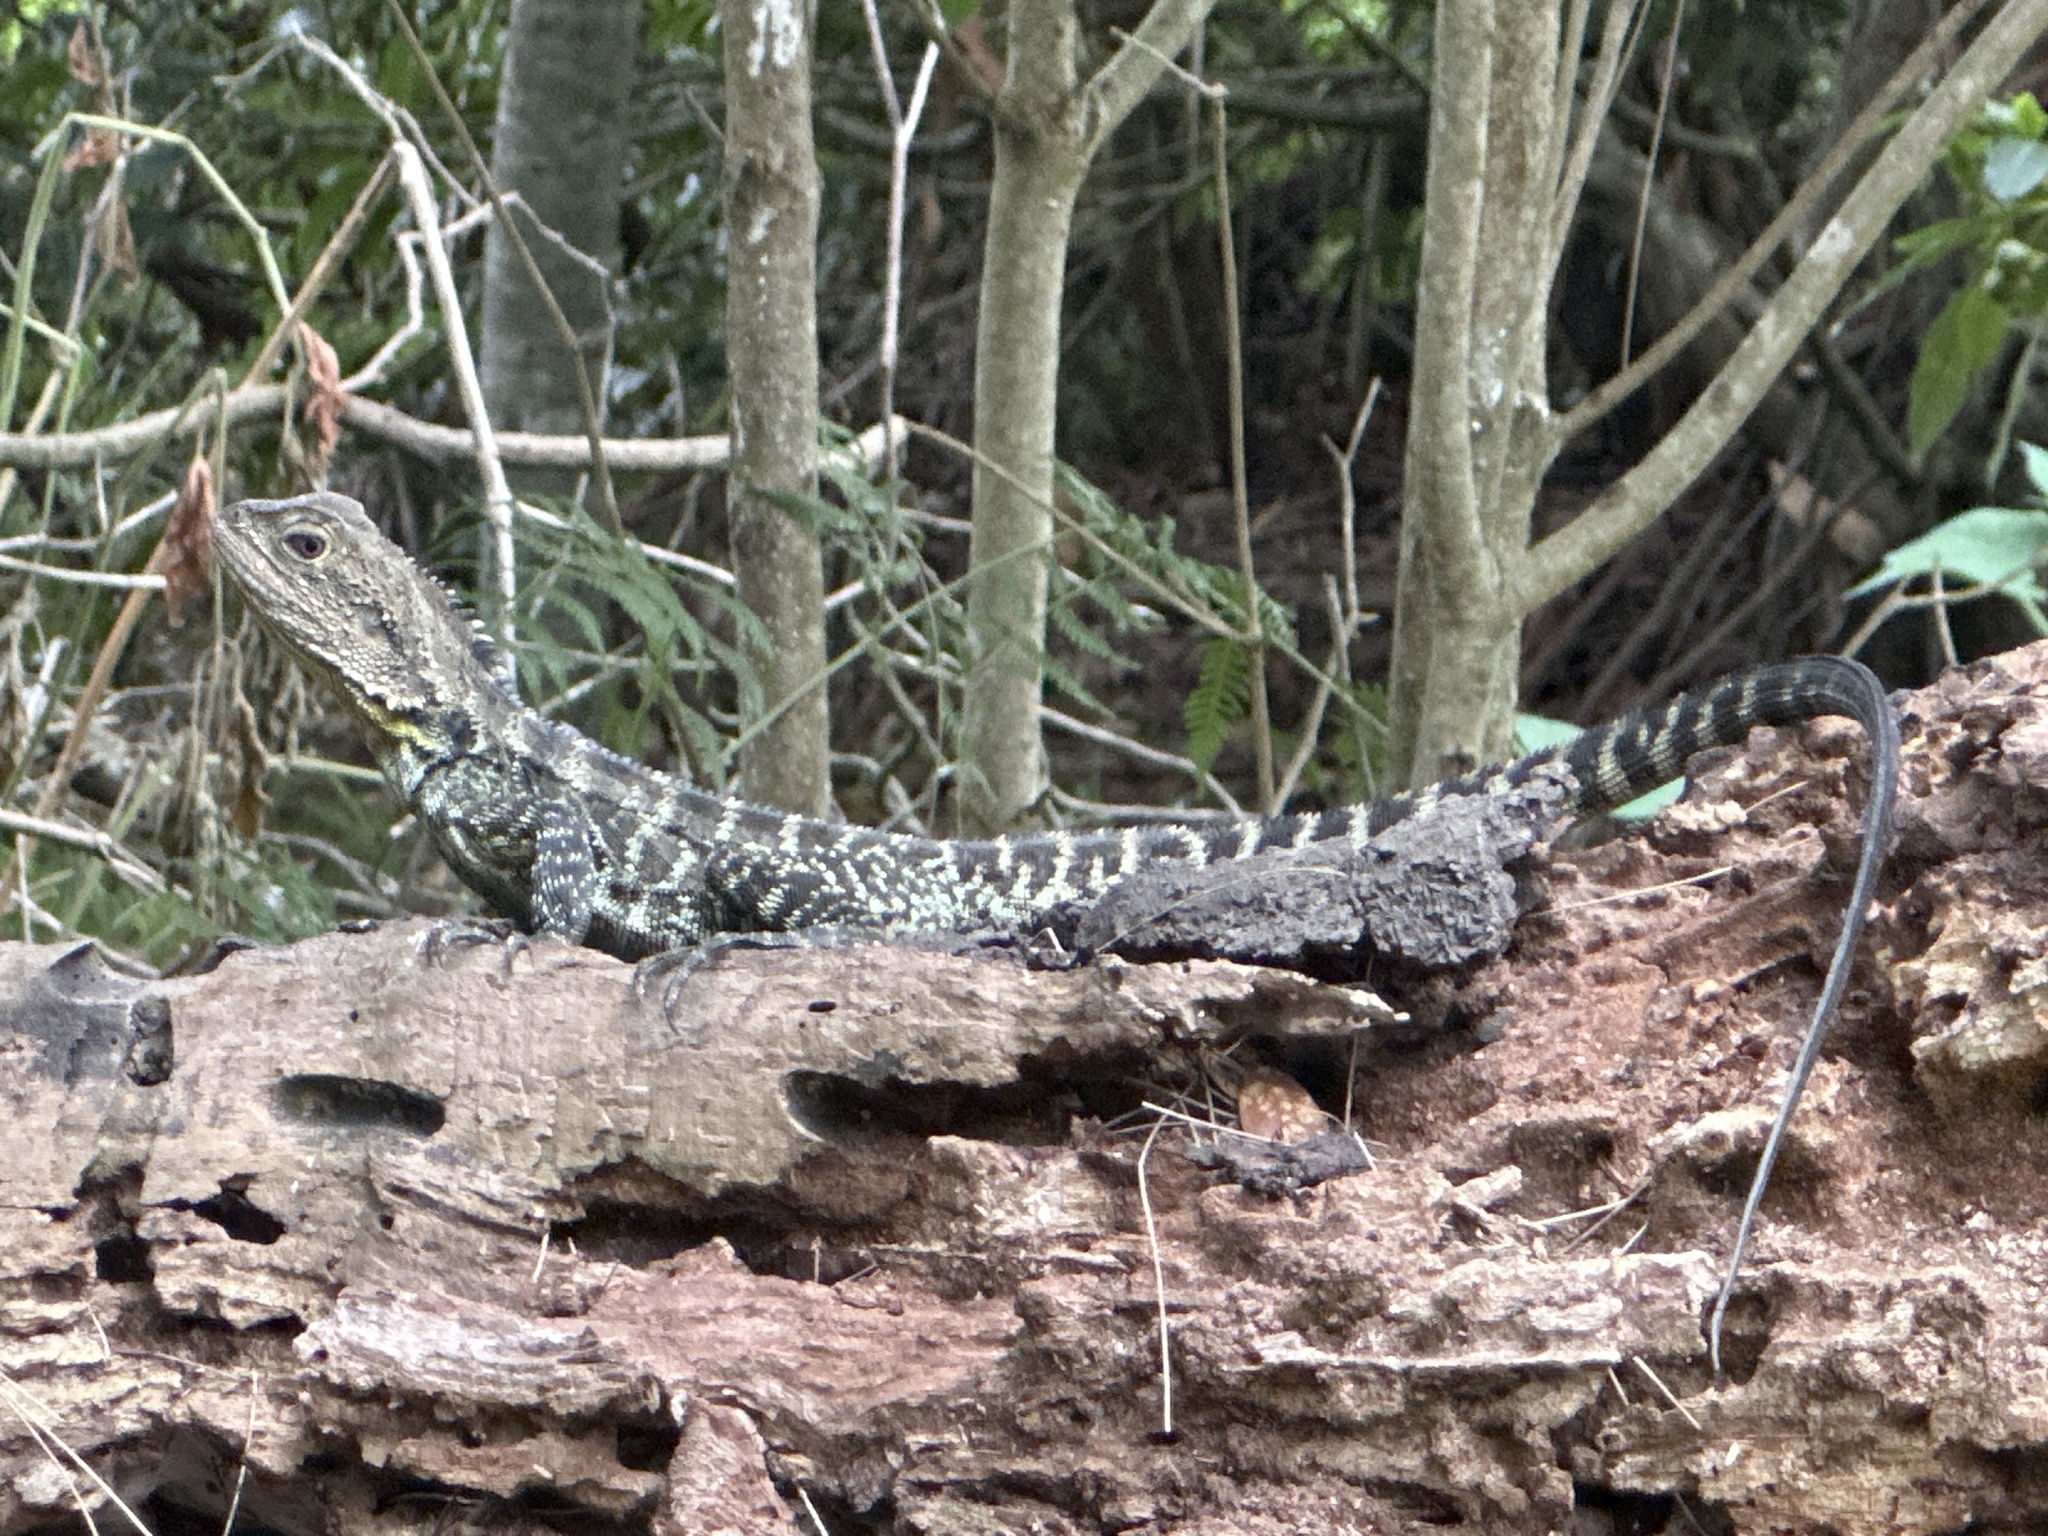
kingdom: Animalia
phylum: Chordata
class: Squamata
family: Agamidae
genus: Intellagama
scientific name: Intellagama lesueurii
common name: Eastern water dragon
